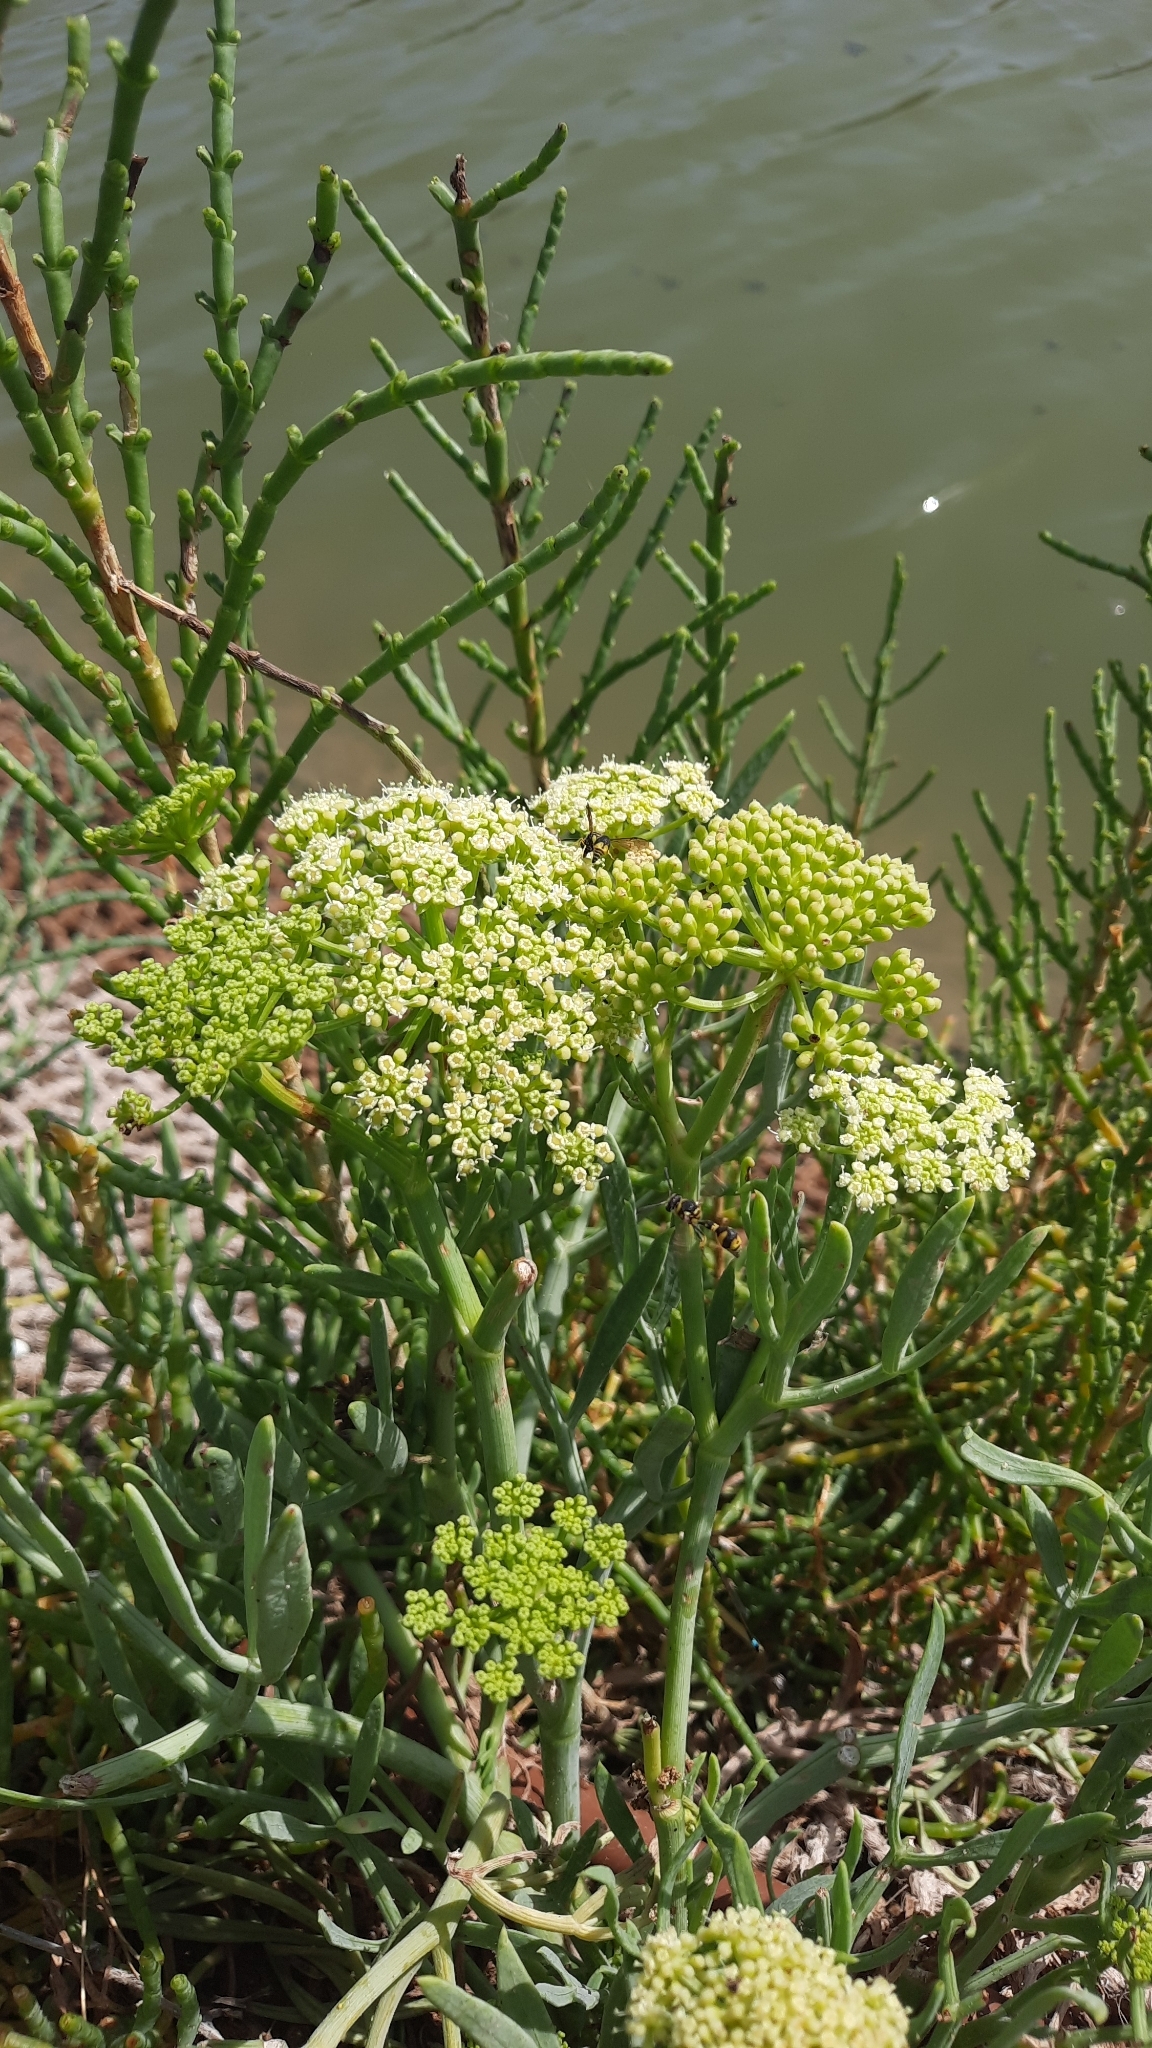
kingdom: Plantae
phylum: Tracheophyta
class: Magnoliopsida
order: Apiales
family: Apiaceae
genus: Crithmum
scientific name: Crithmum maritimum
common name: Rock samphire
